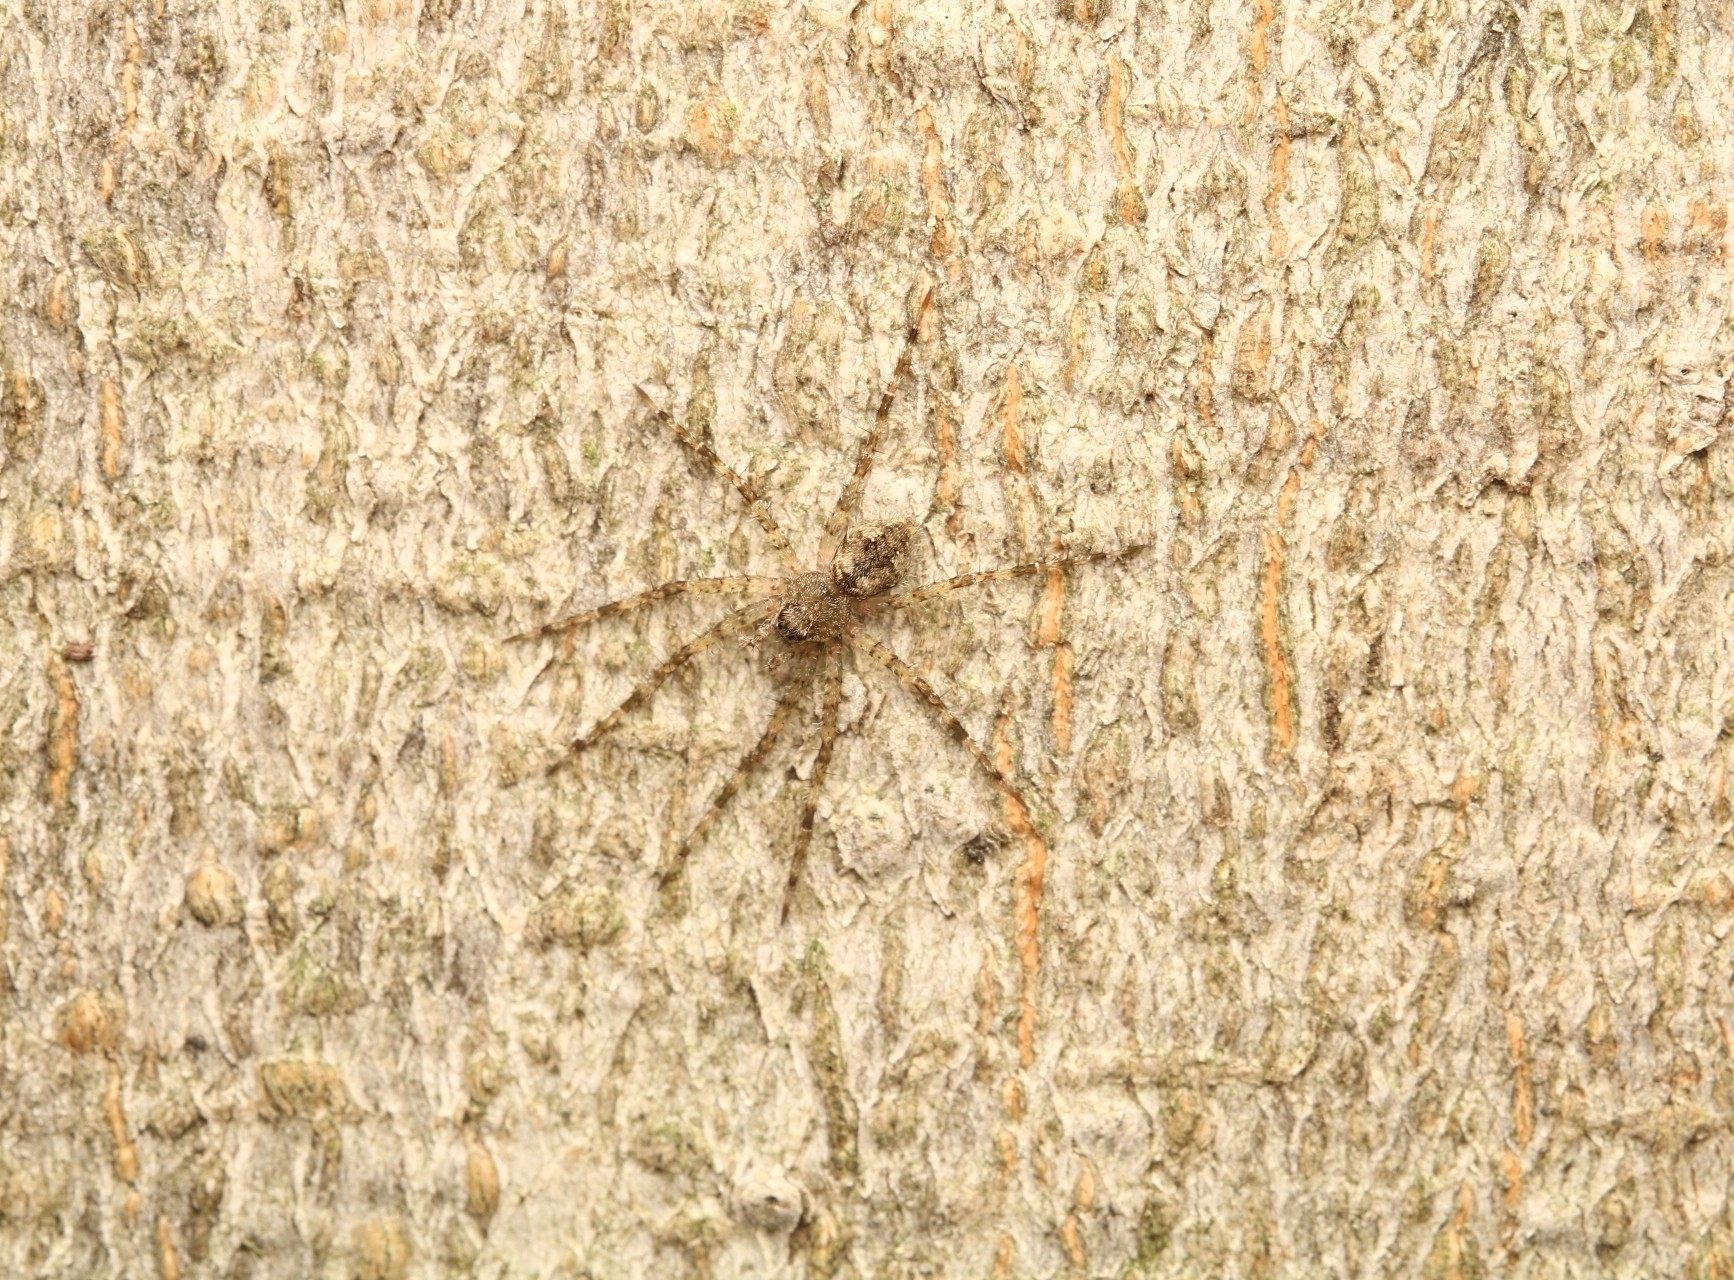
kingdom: Animalia
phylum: Arthropoda
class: Arachnida
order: Araneae
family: Pisauridae
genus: Dolomedes
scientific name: Dolomedes albineus
